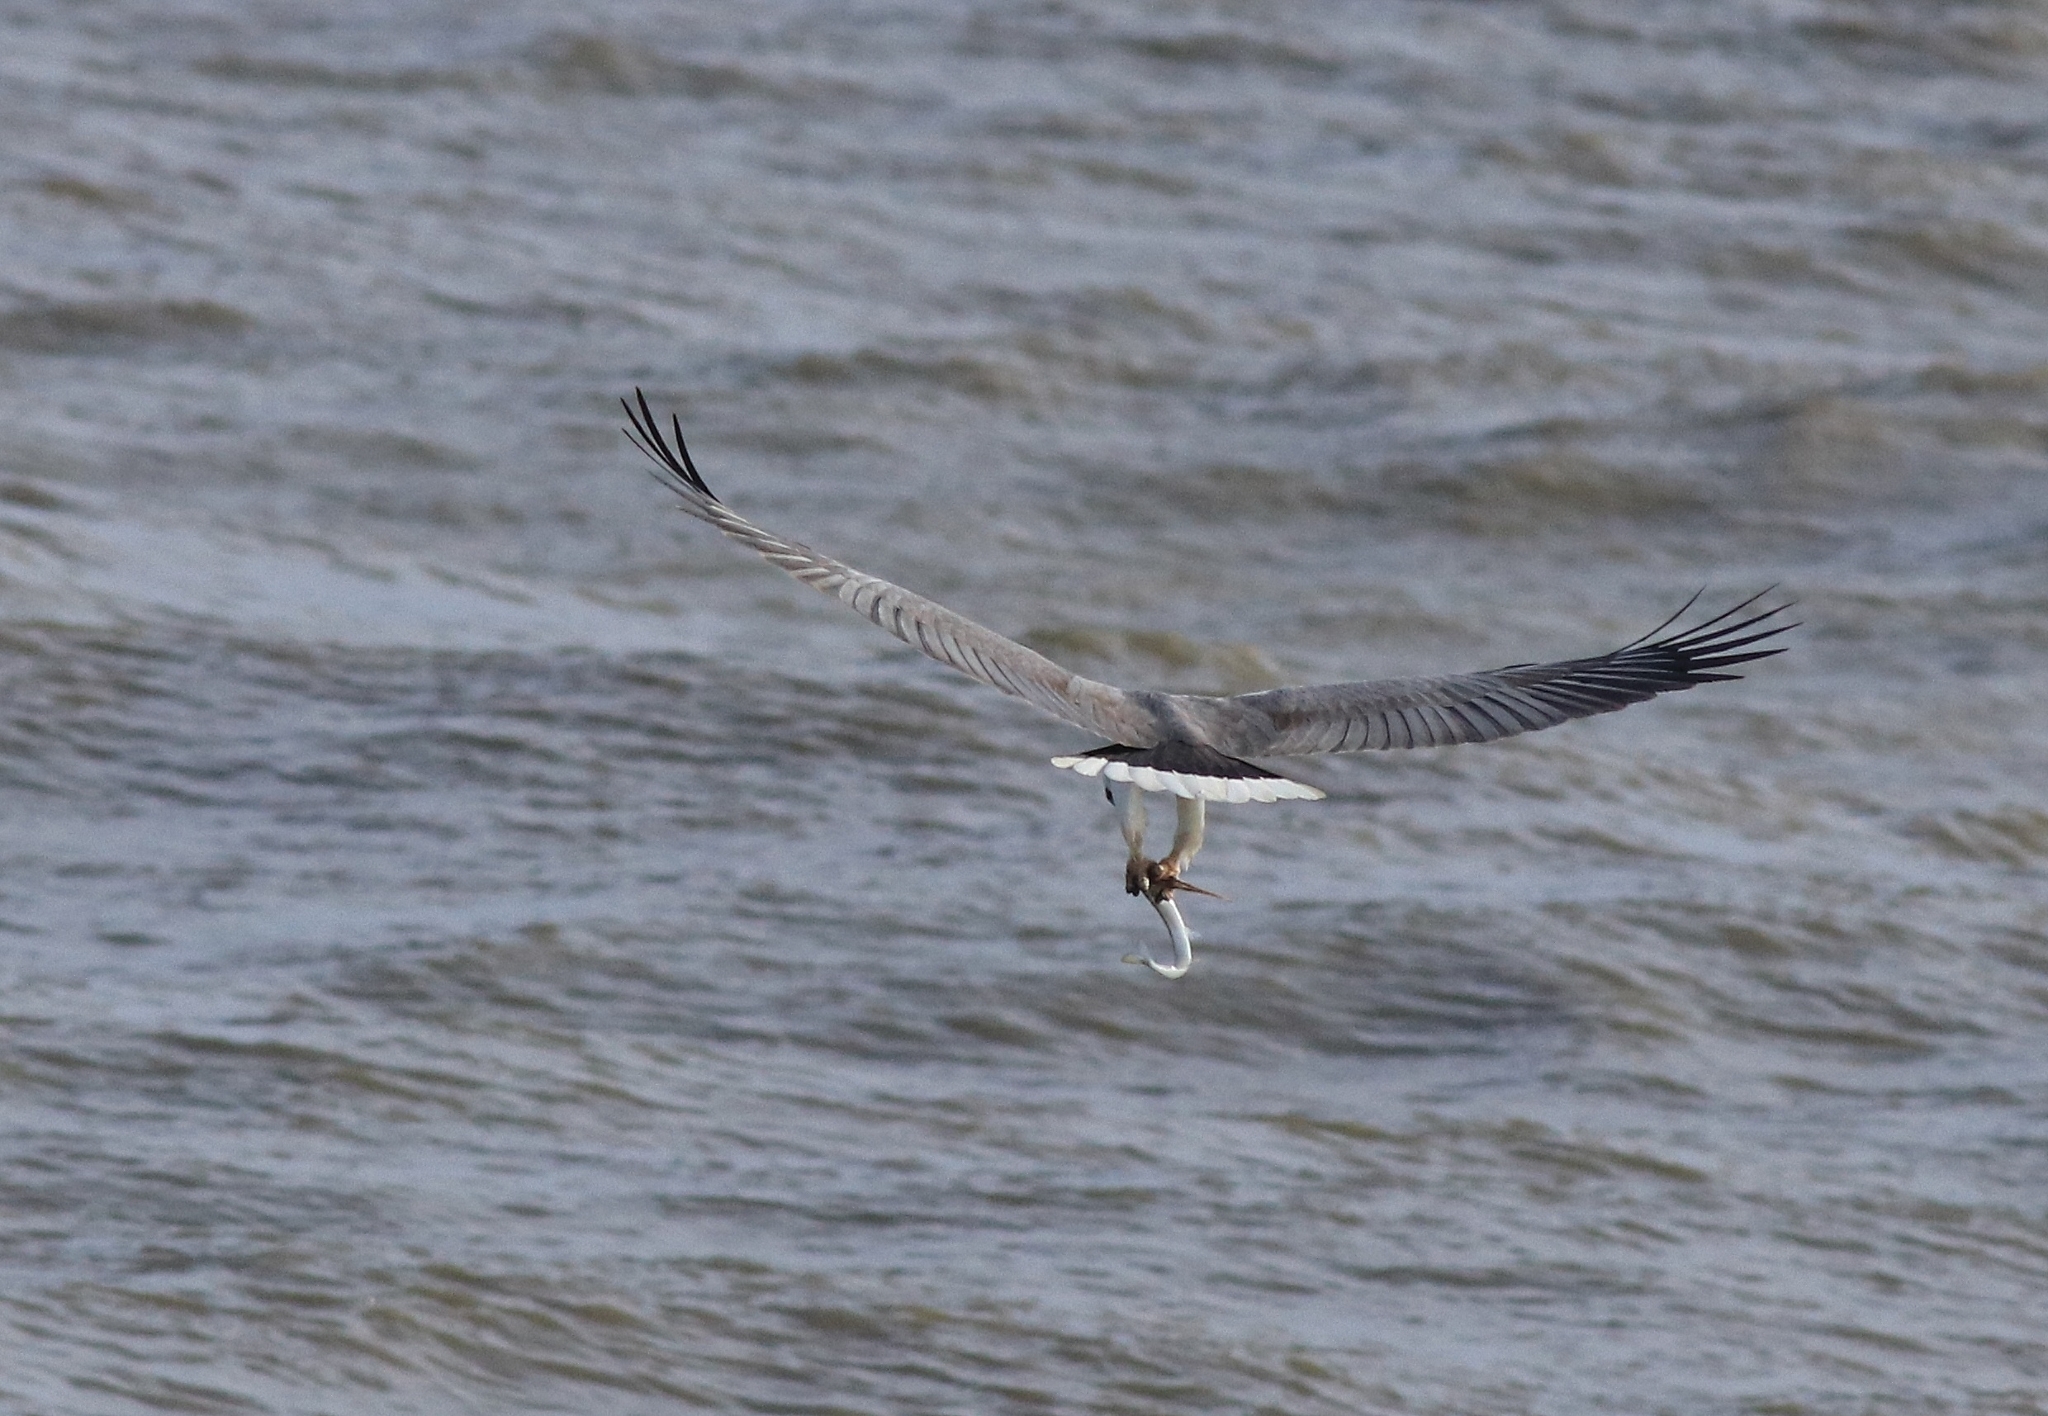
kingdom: Animalia
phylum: Chordata
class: Aves
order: Accipitriformes
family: Accipitridae
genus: Haliaeetus
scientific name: Haliaeetus leucogaster
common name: White-bellied sea eagle
